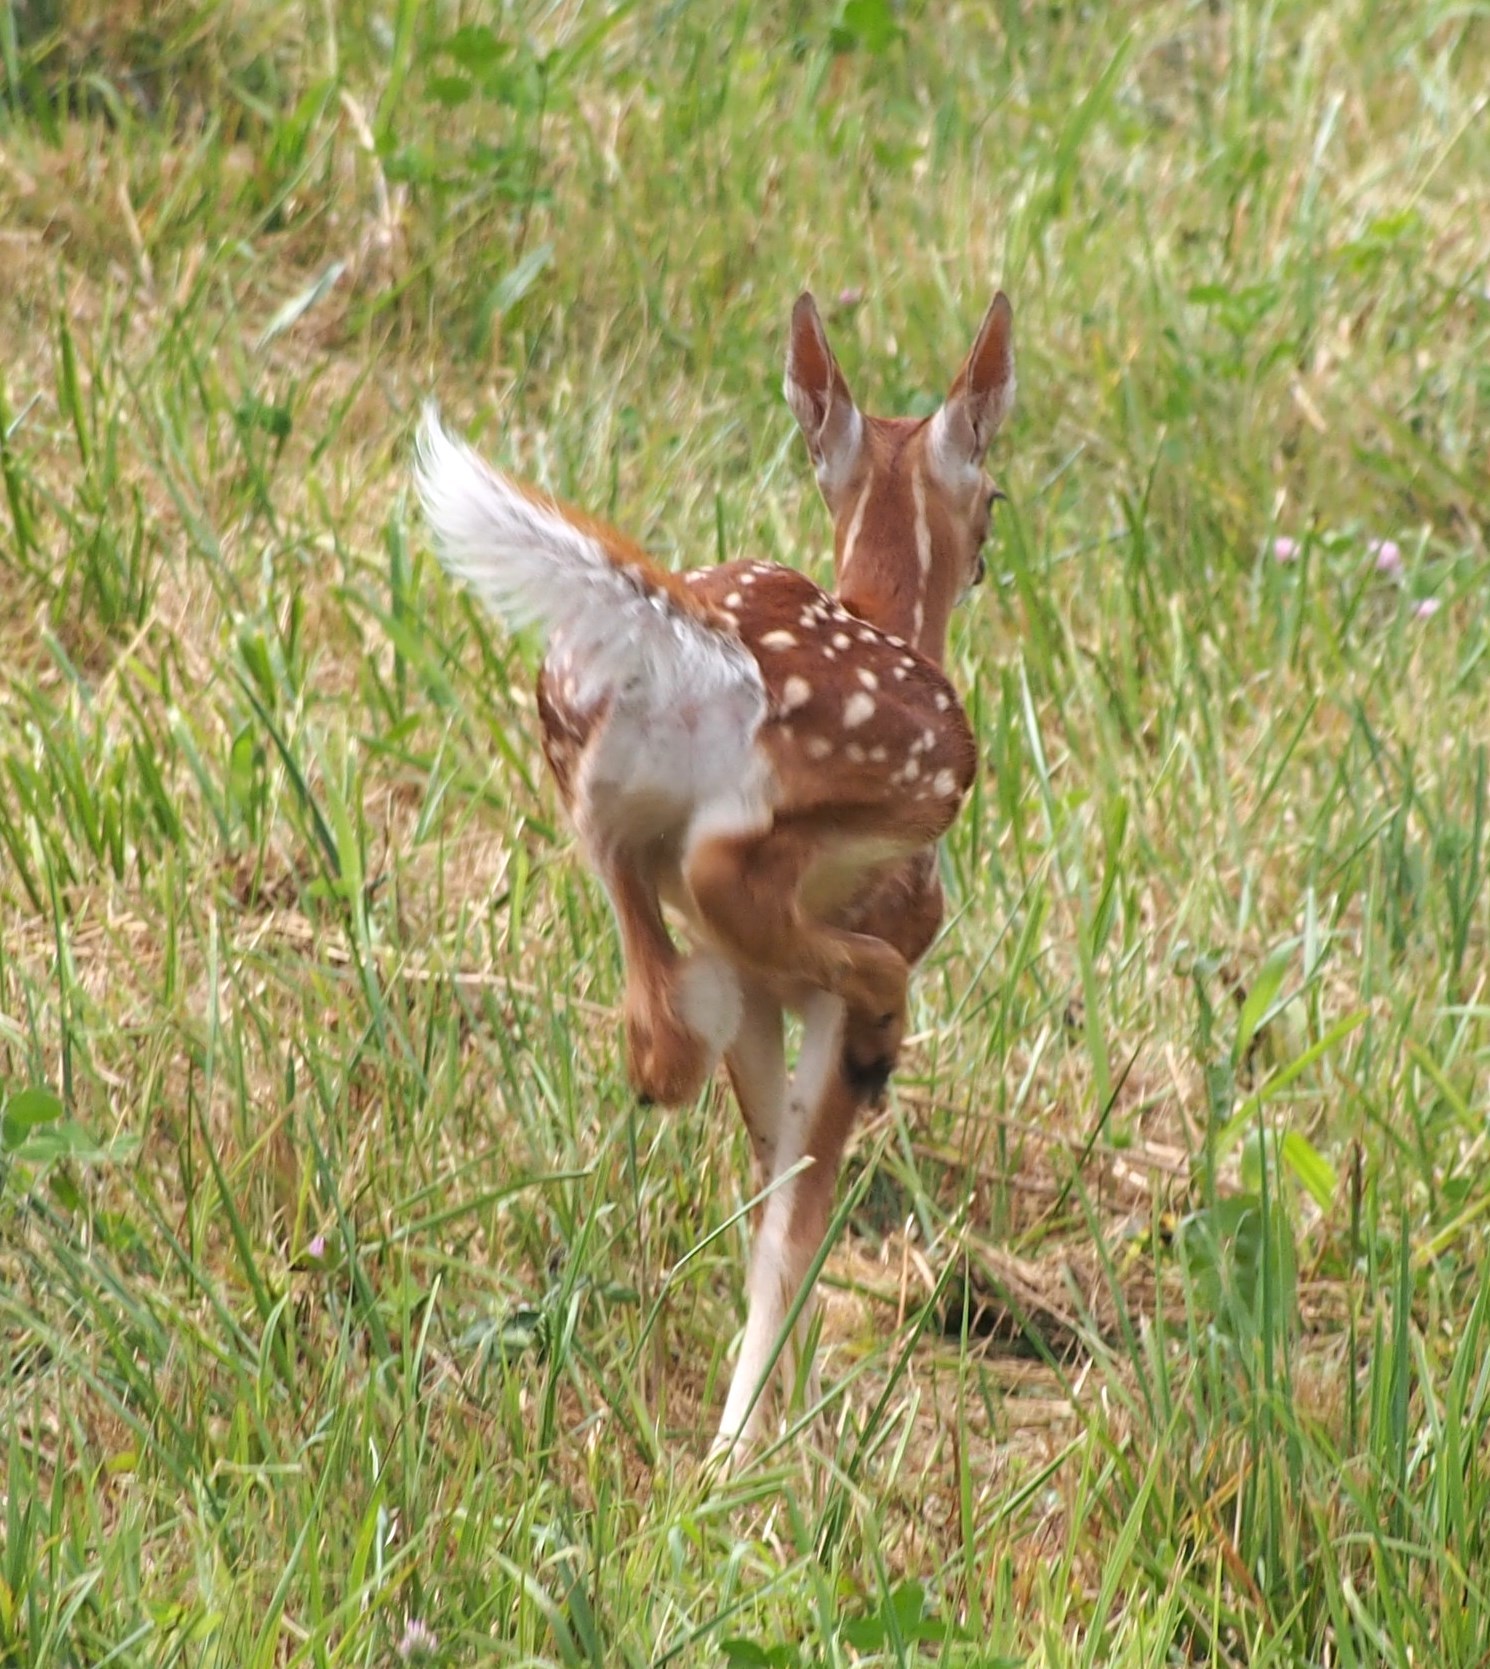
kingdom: Animalia
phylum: Chordata
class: Mammalia
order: Artiodactyla
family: Cervidae
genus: Odocoileus
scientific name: Odocoileus virginianus
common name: White-tailed deer
